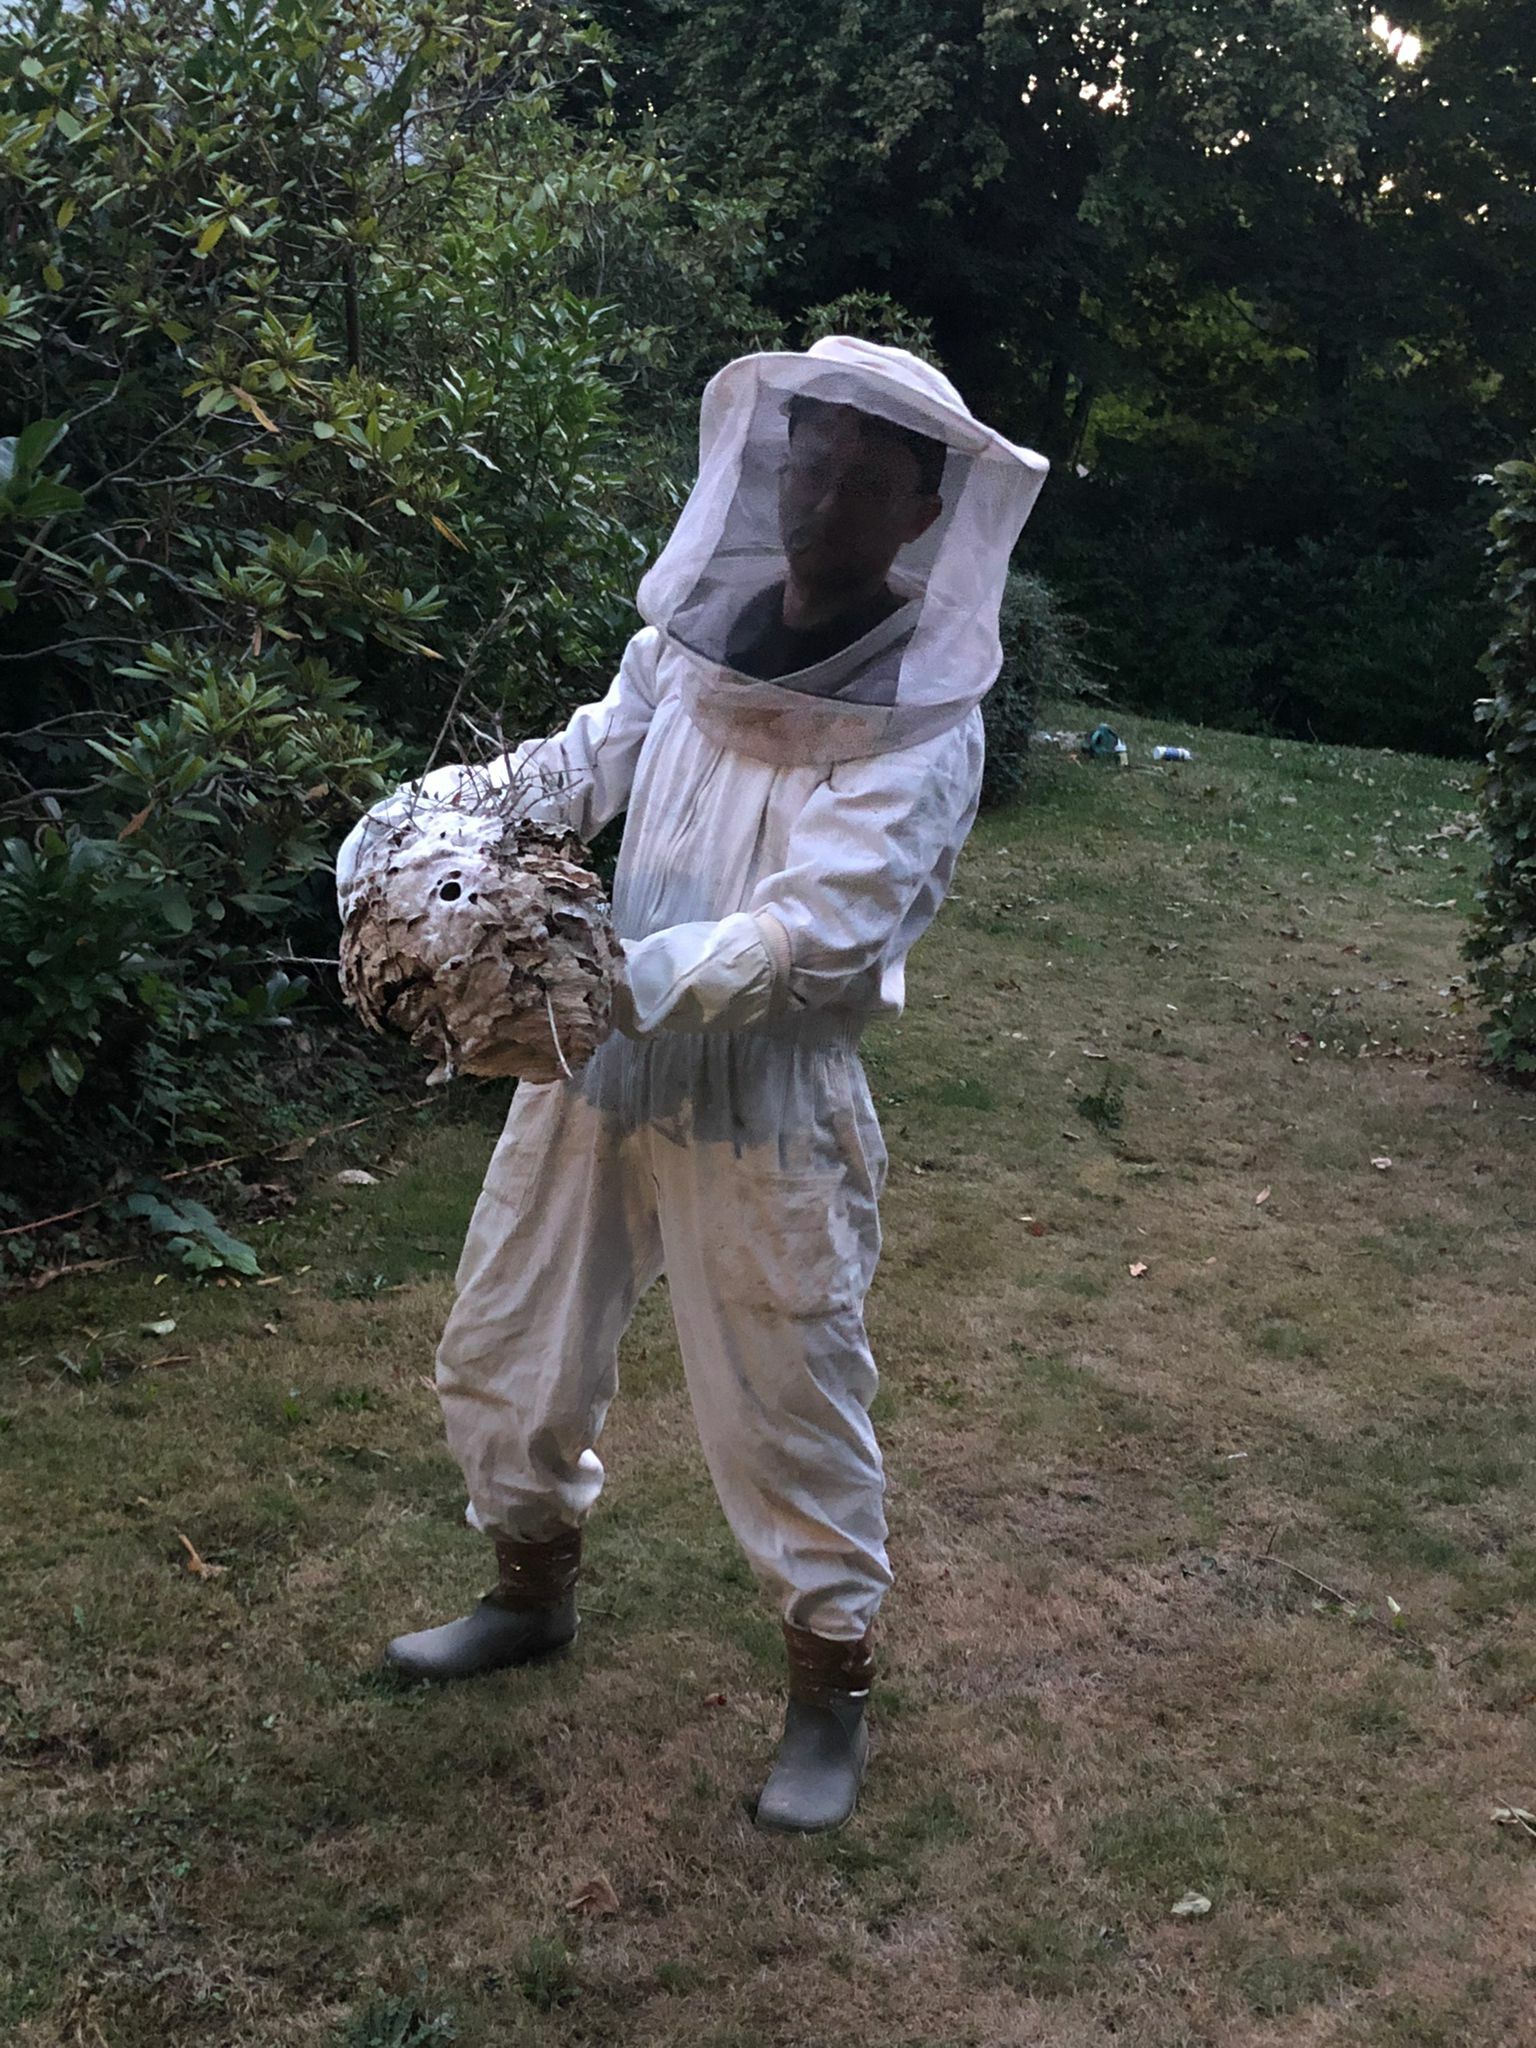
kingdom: Animalia
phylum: Arthropoda
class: Insecta
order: Hymenoptera
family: Vespidae
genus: Vespa
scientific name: Vespa velutina
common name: Asian hornet
